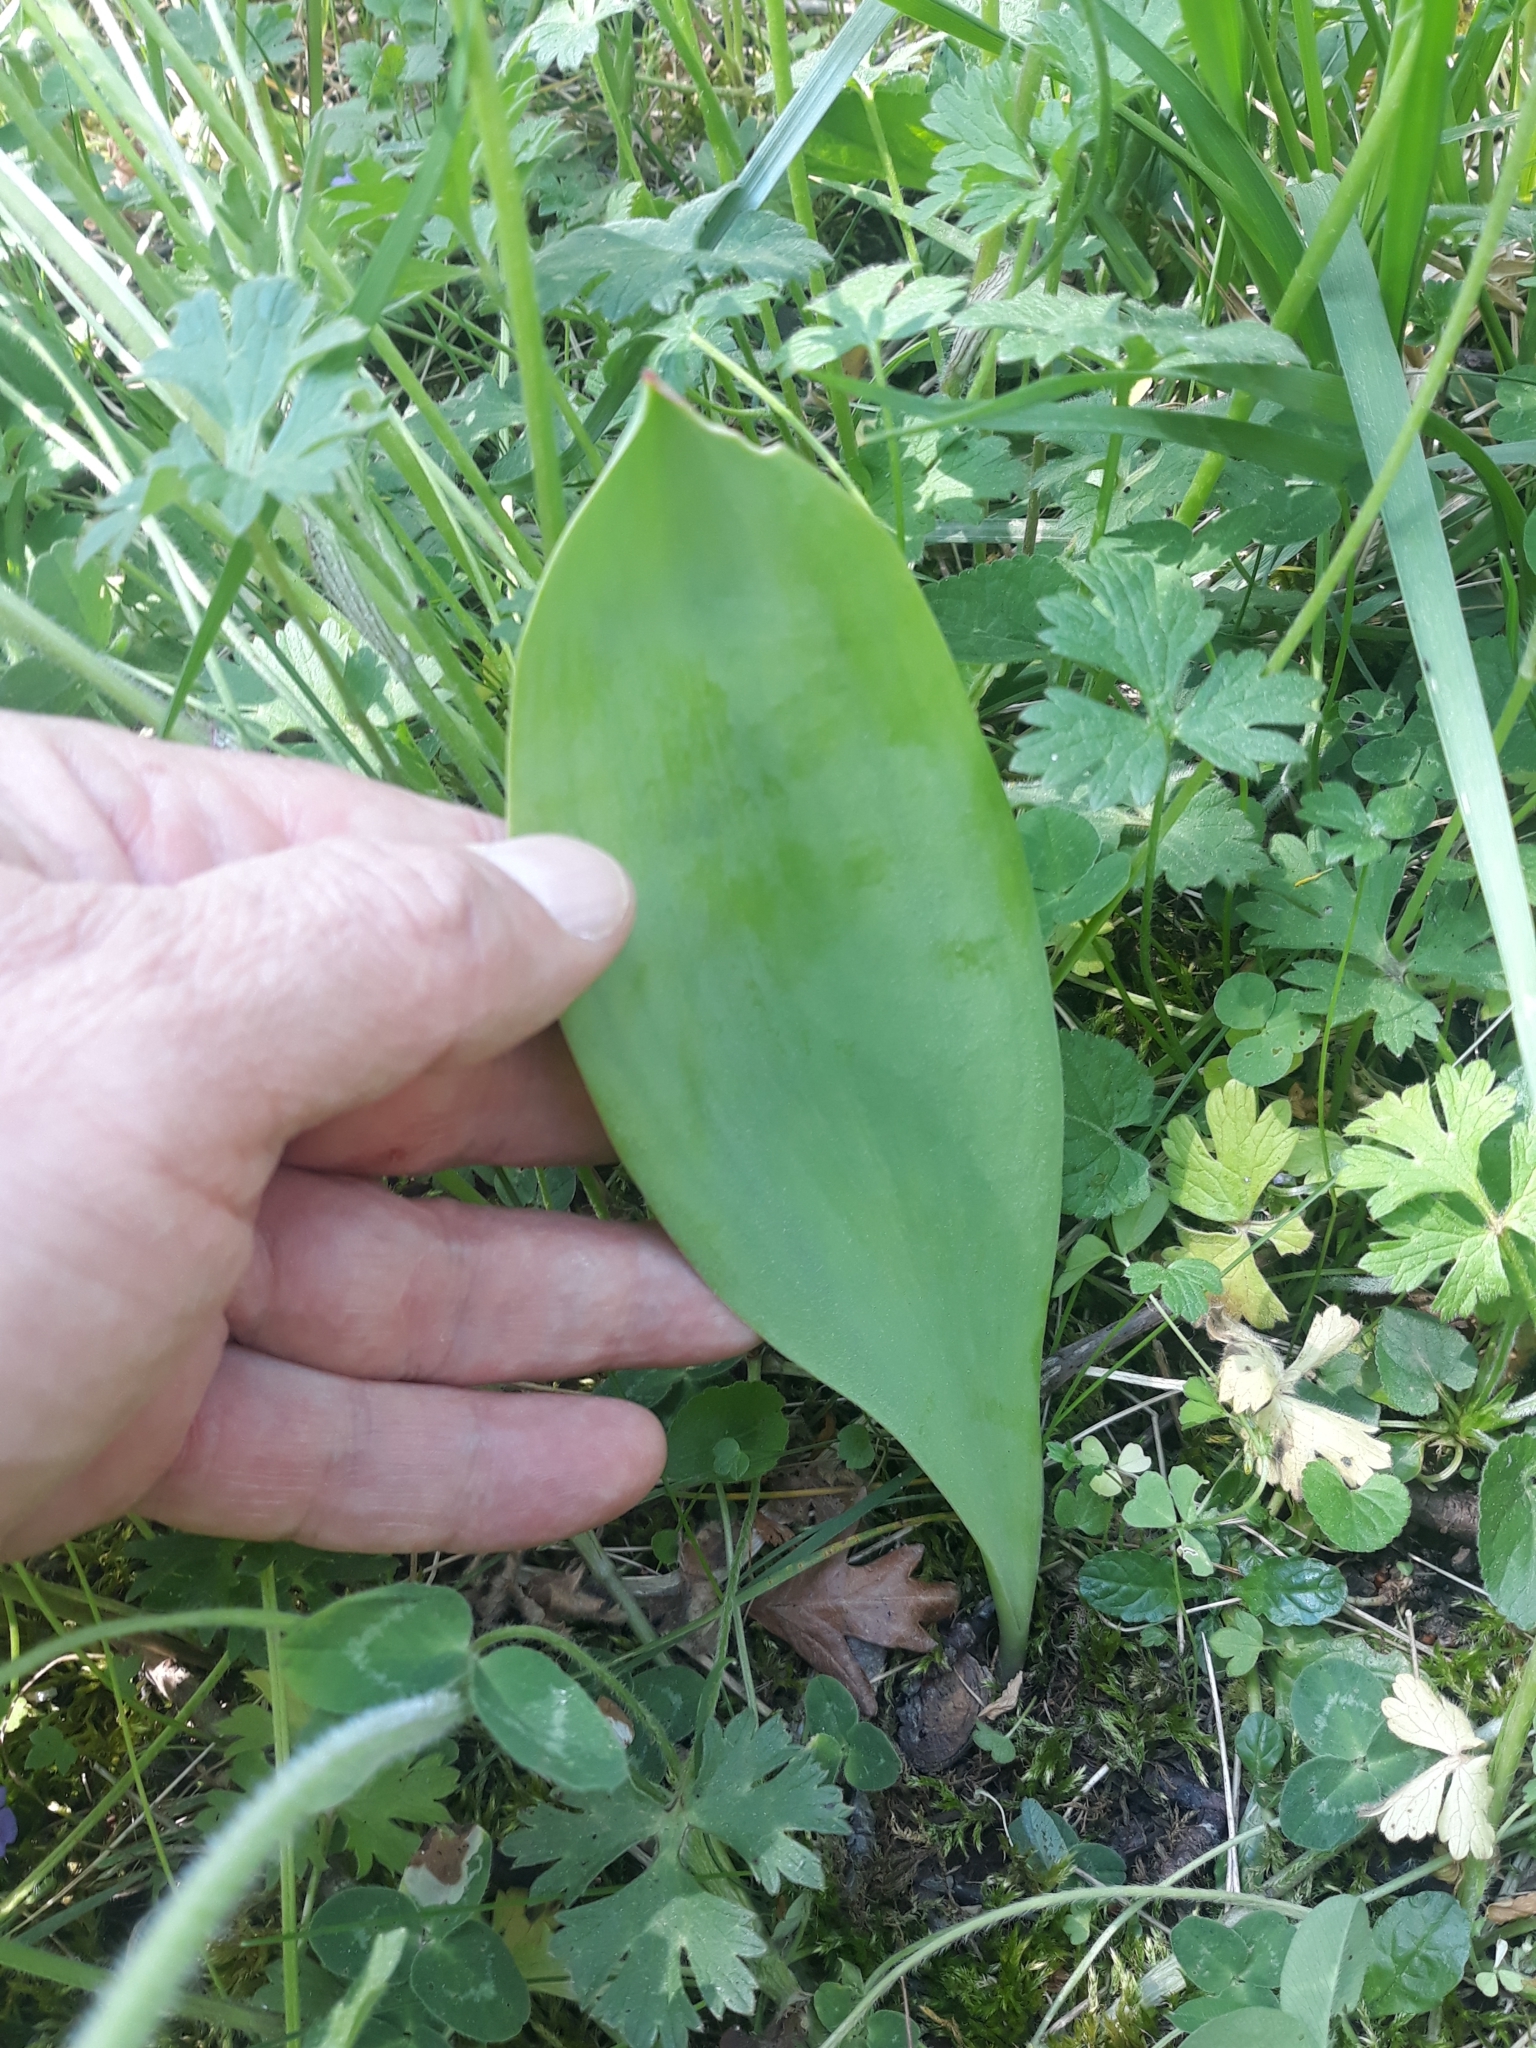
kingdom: Plantae
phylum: Tracheophyta
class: Liliopsida
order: Asparagales
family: Asparagaceae
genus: Convallaria
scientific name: Convallaria majalis
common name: Lily-of-the-valley
